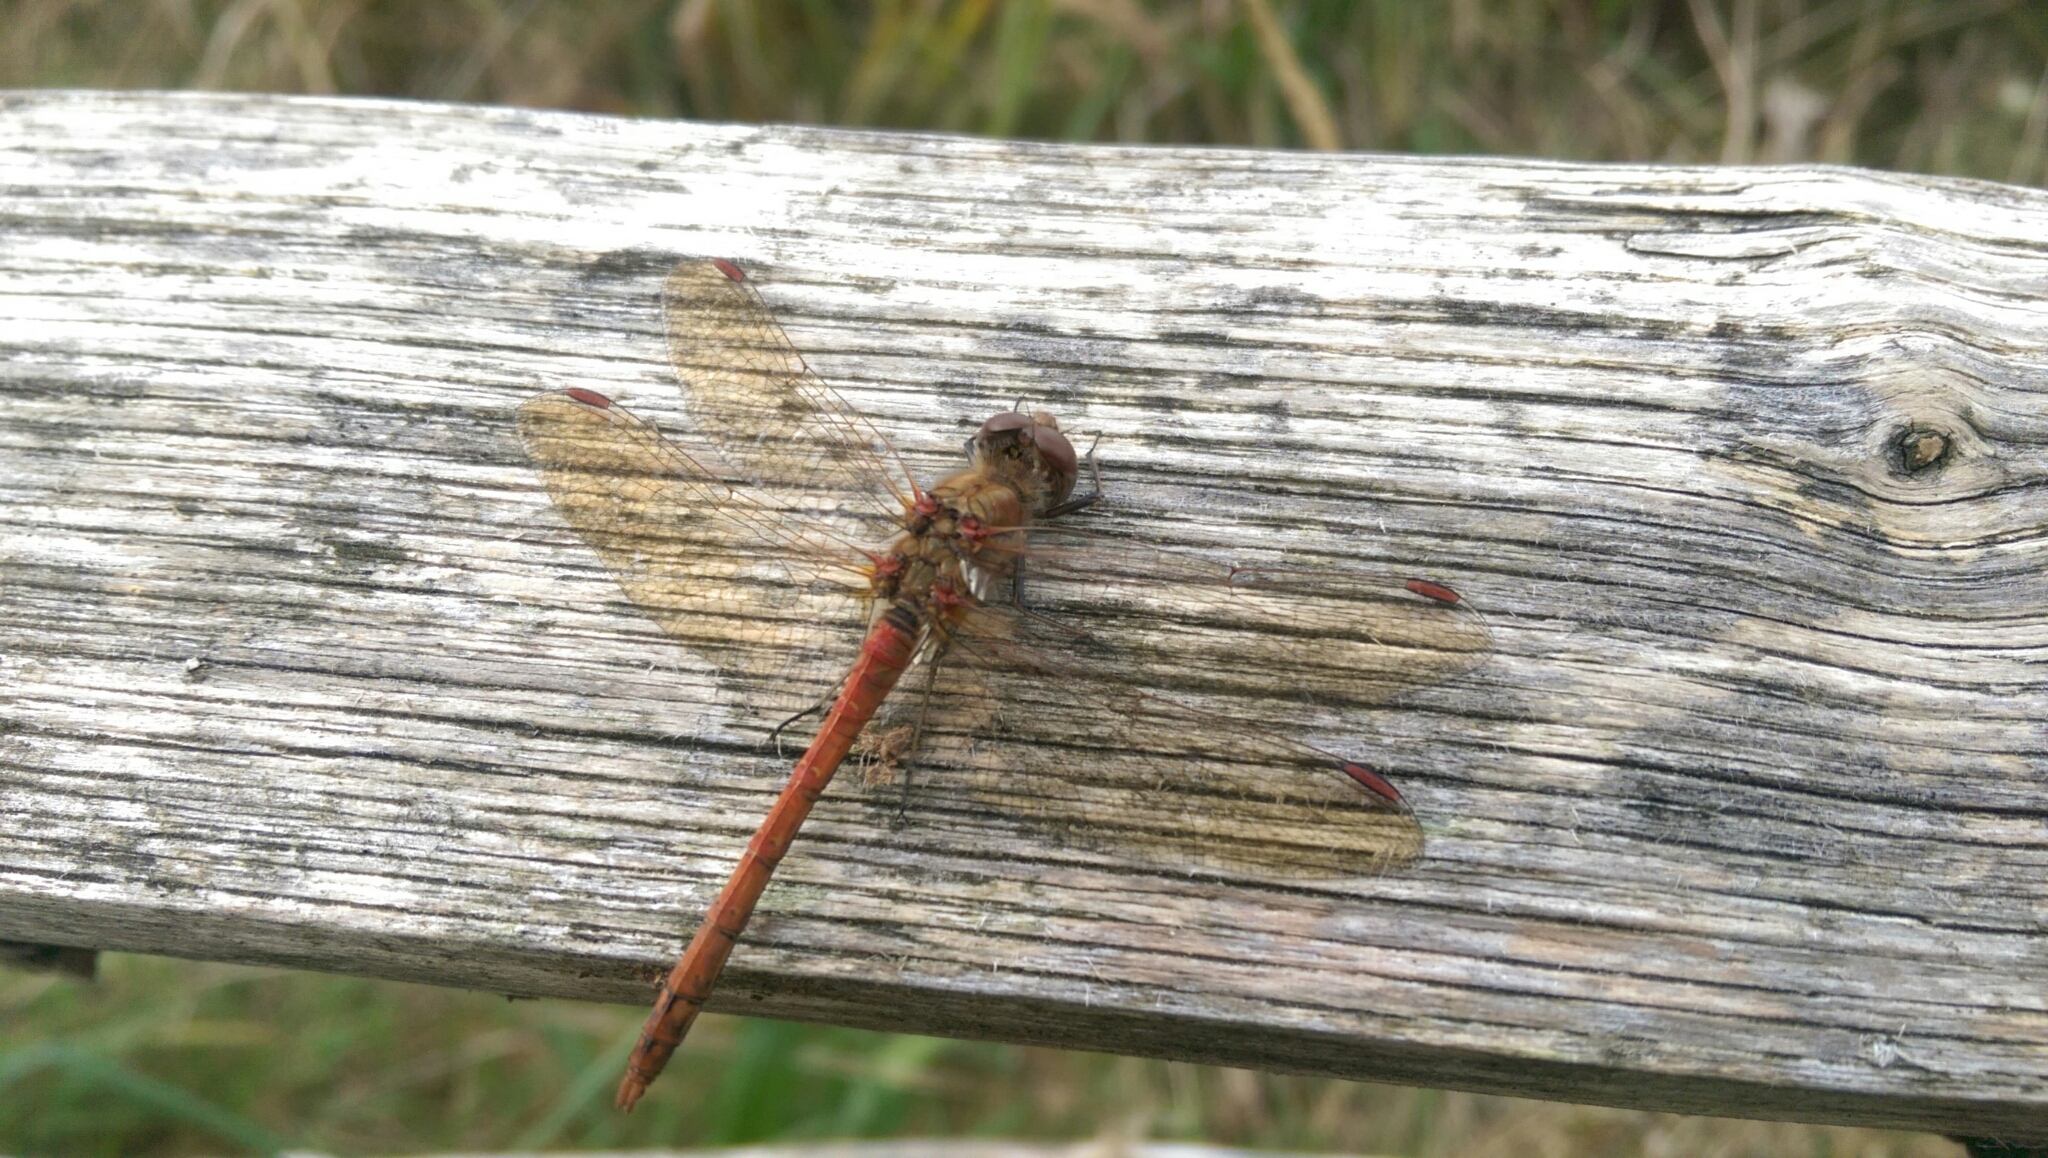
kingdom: Animalia
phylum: Arthropoda
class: Insecta
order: Odonata
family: Libellulidae
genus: Sympetrum
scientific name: Sympetrum striolatum
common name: Common darter
